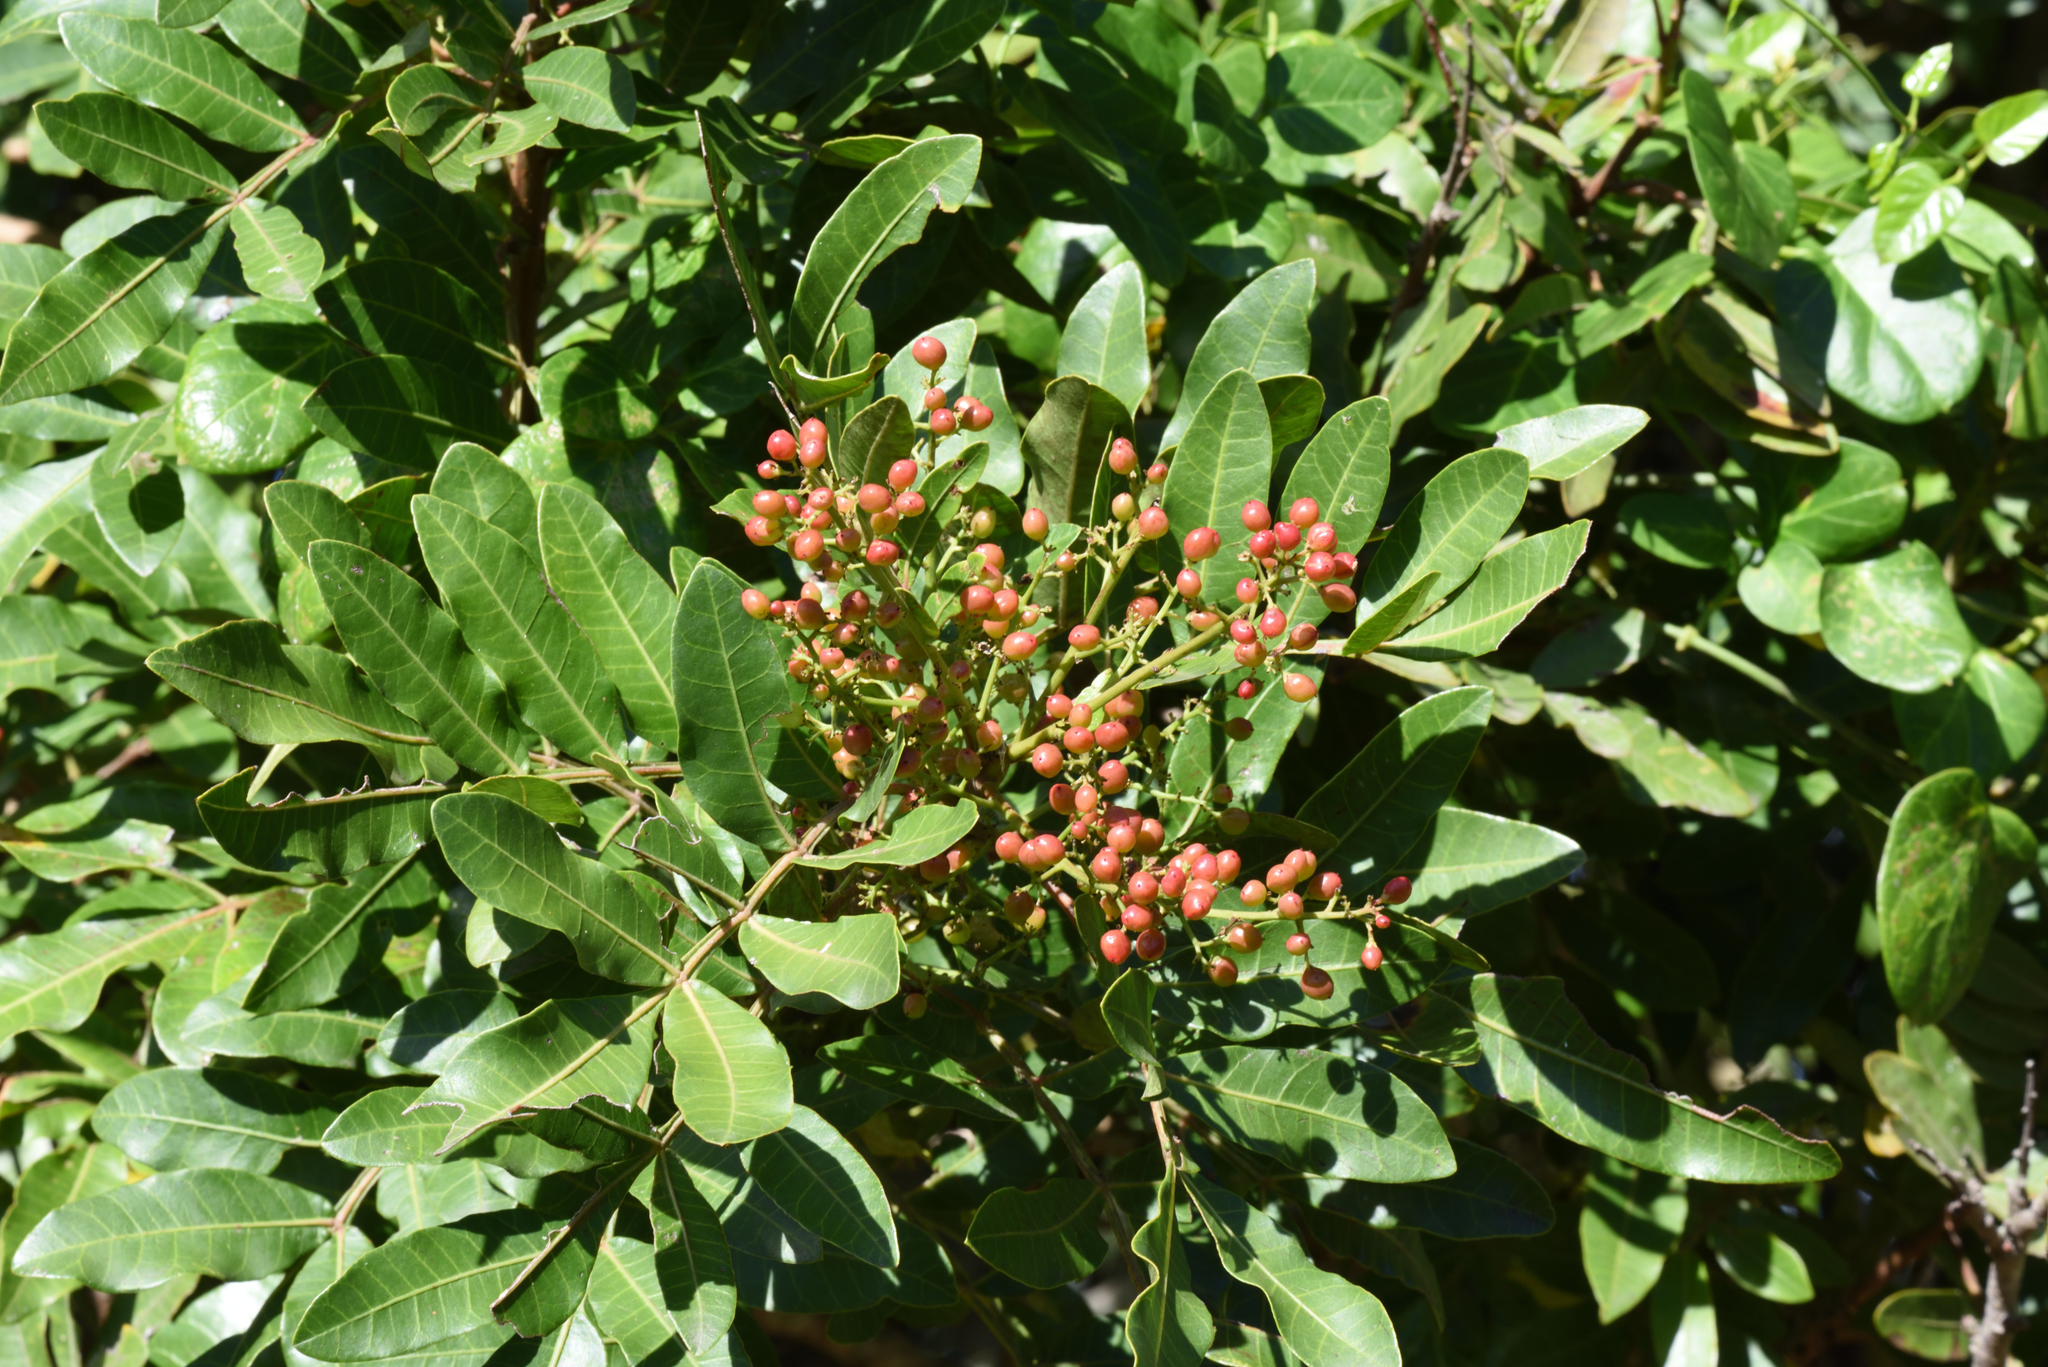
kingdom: Plantae
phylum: Tracheophyta
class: Magnoliopsida
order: Sapindales
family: Anacardiaceae
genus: Schinus
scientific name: Schinus terebinthifolia
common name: Brazilian peppertree
